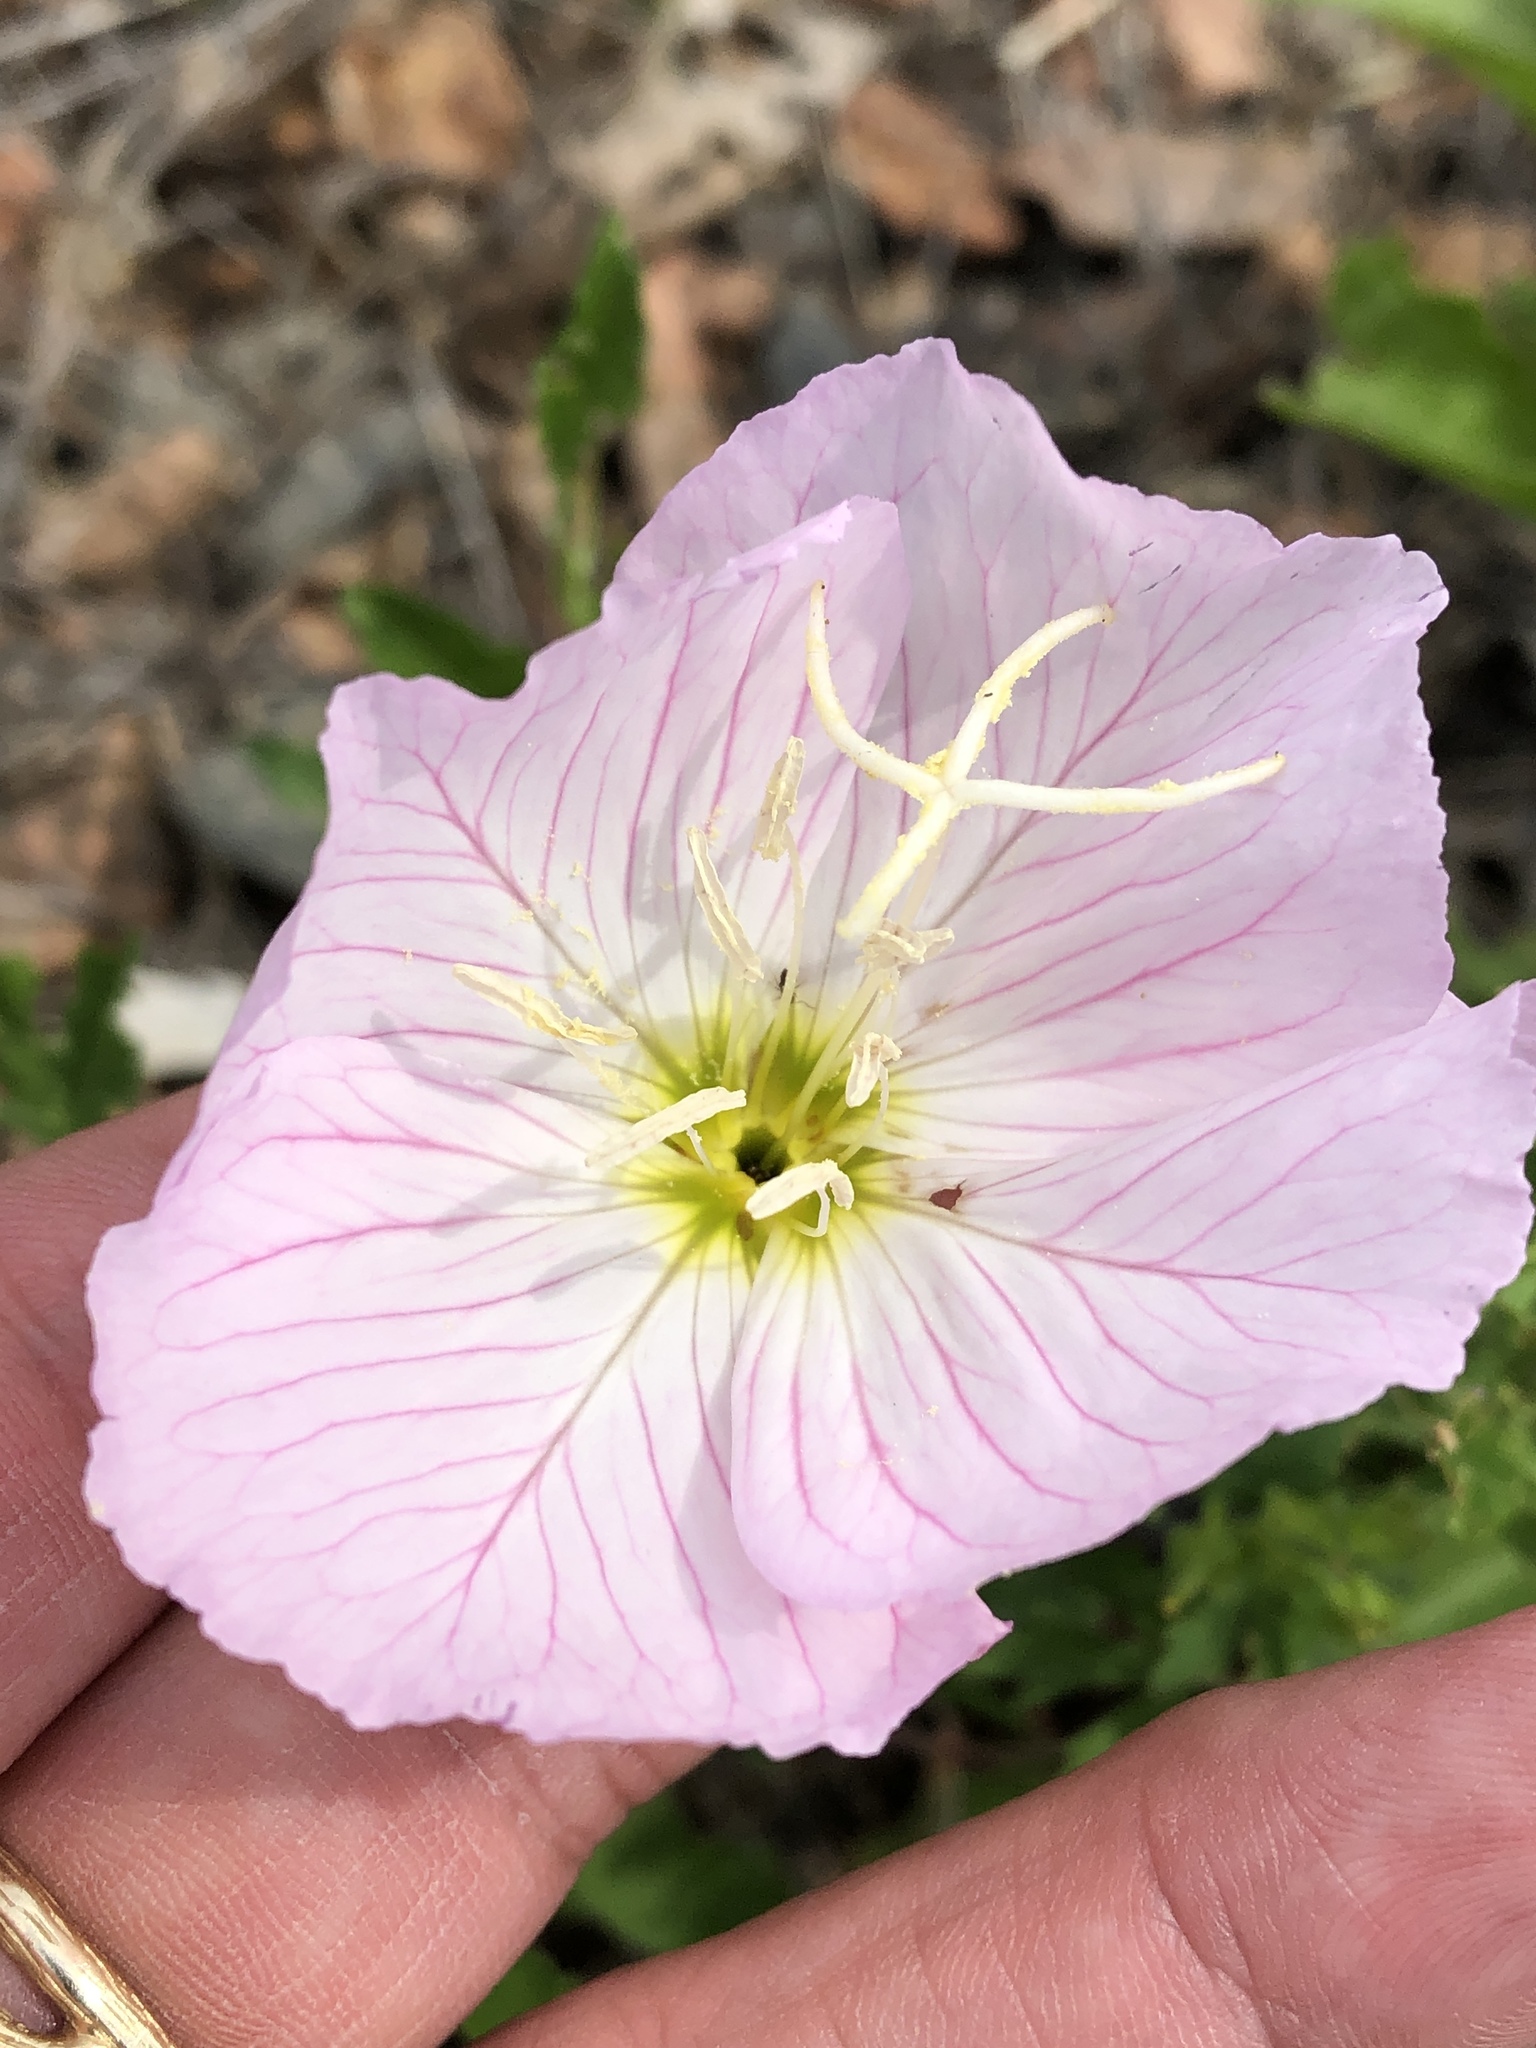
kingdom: Plantae
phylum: Tracheophyta
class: Magnoliopsida
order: Myrtales
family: Onagraceae
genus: Oenothera
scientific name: Oenothera speciosa
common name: White evening-primrose
